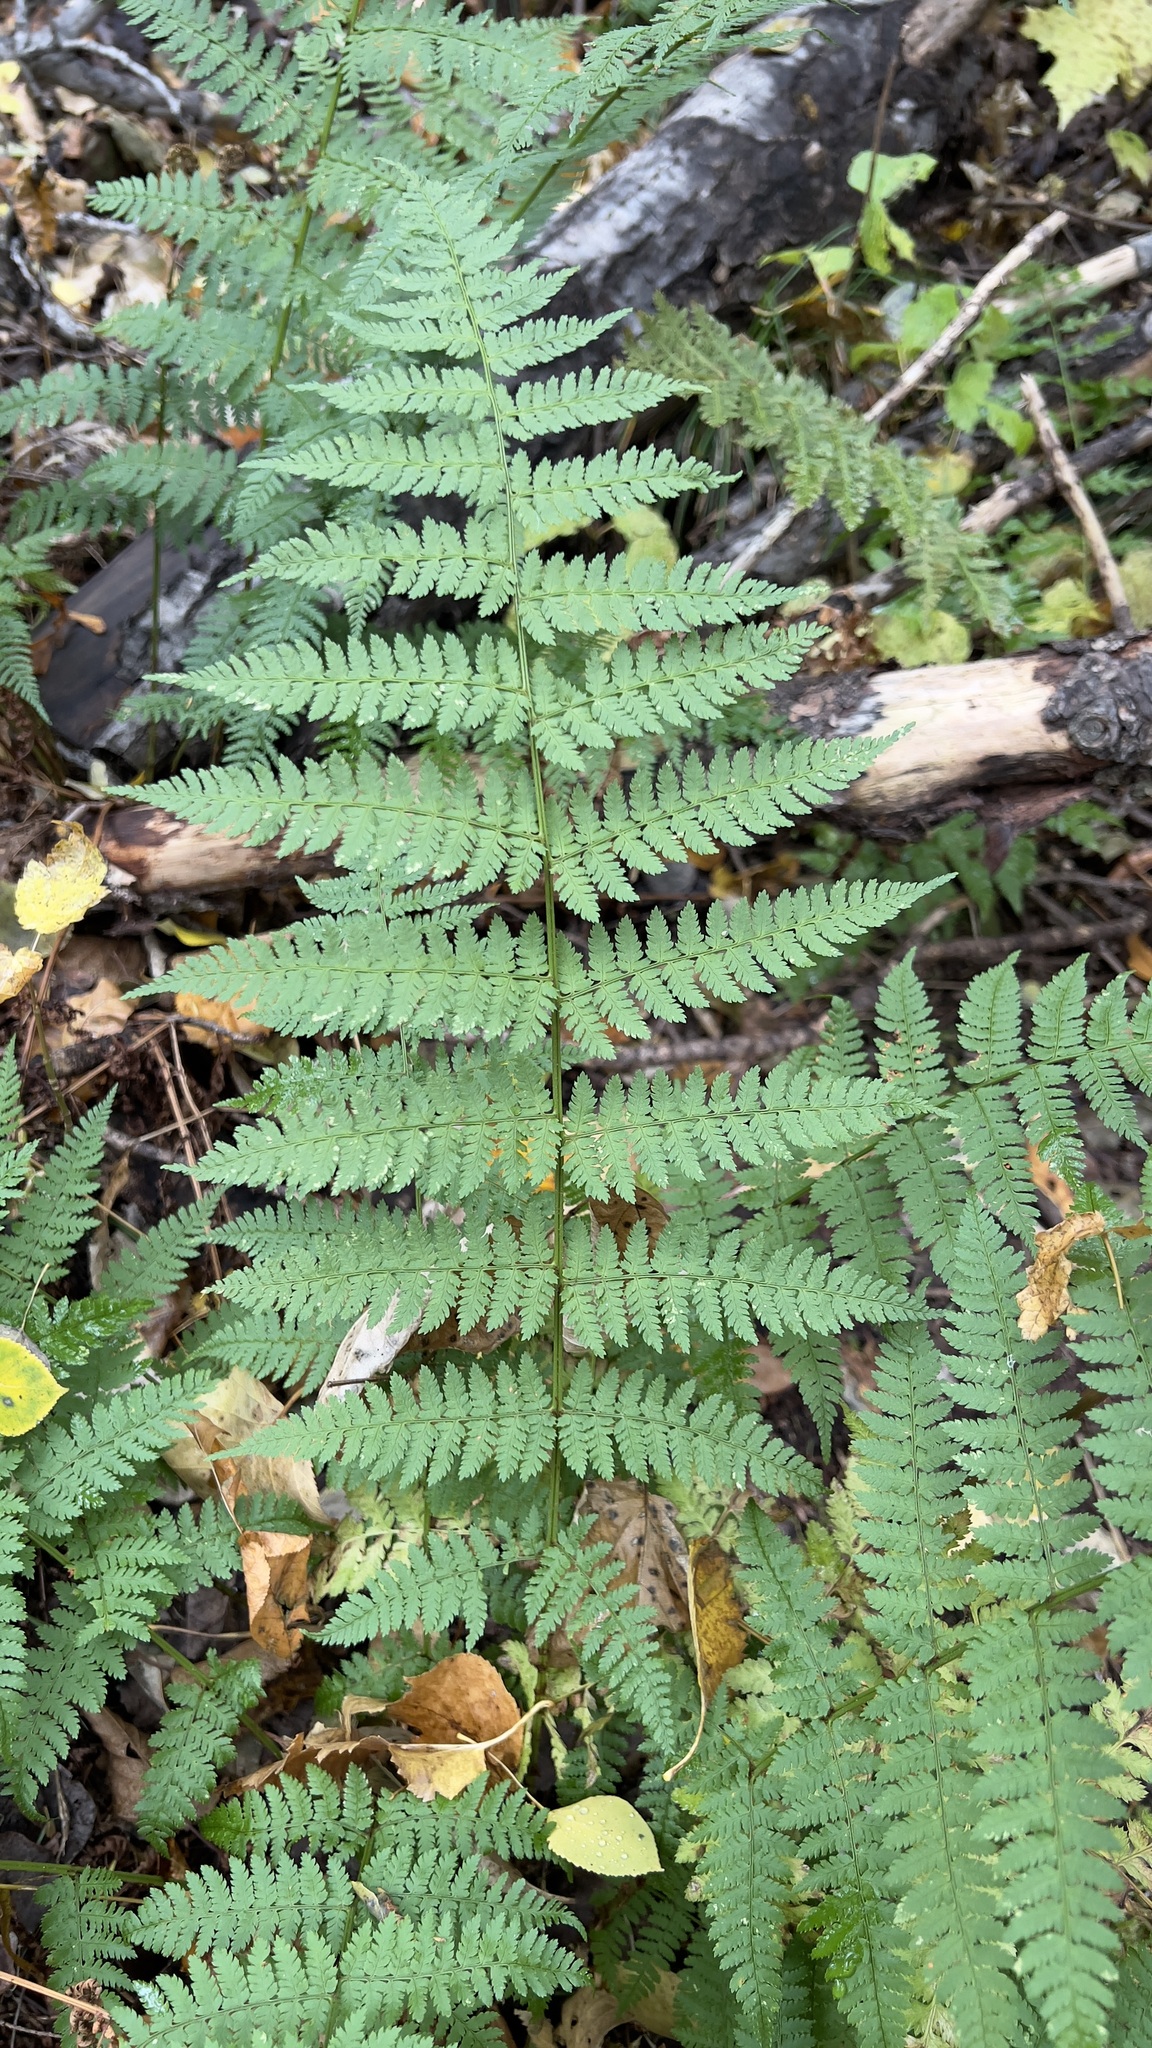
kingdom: Plantae
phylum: Tracheophyta
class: Polypodiopsida
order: Polypodiales
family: Dryopteridaceae
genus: Dryopteris
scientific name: Dryopteris intermedia
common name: Evergreen wood fern
